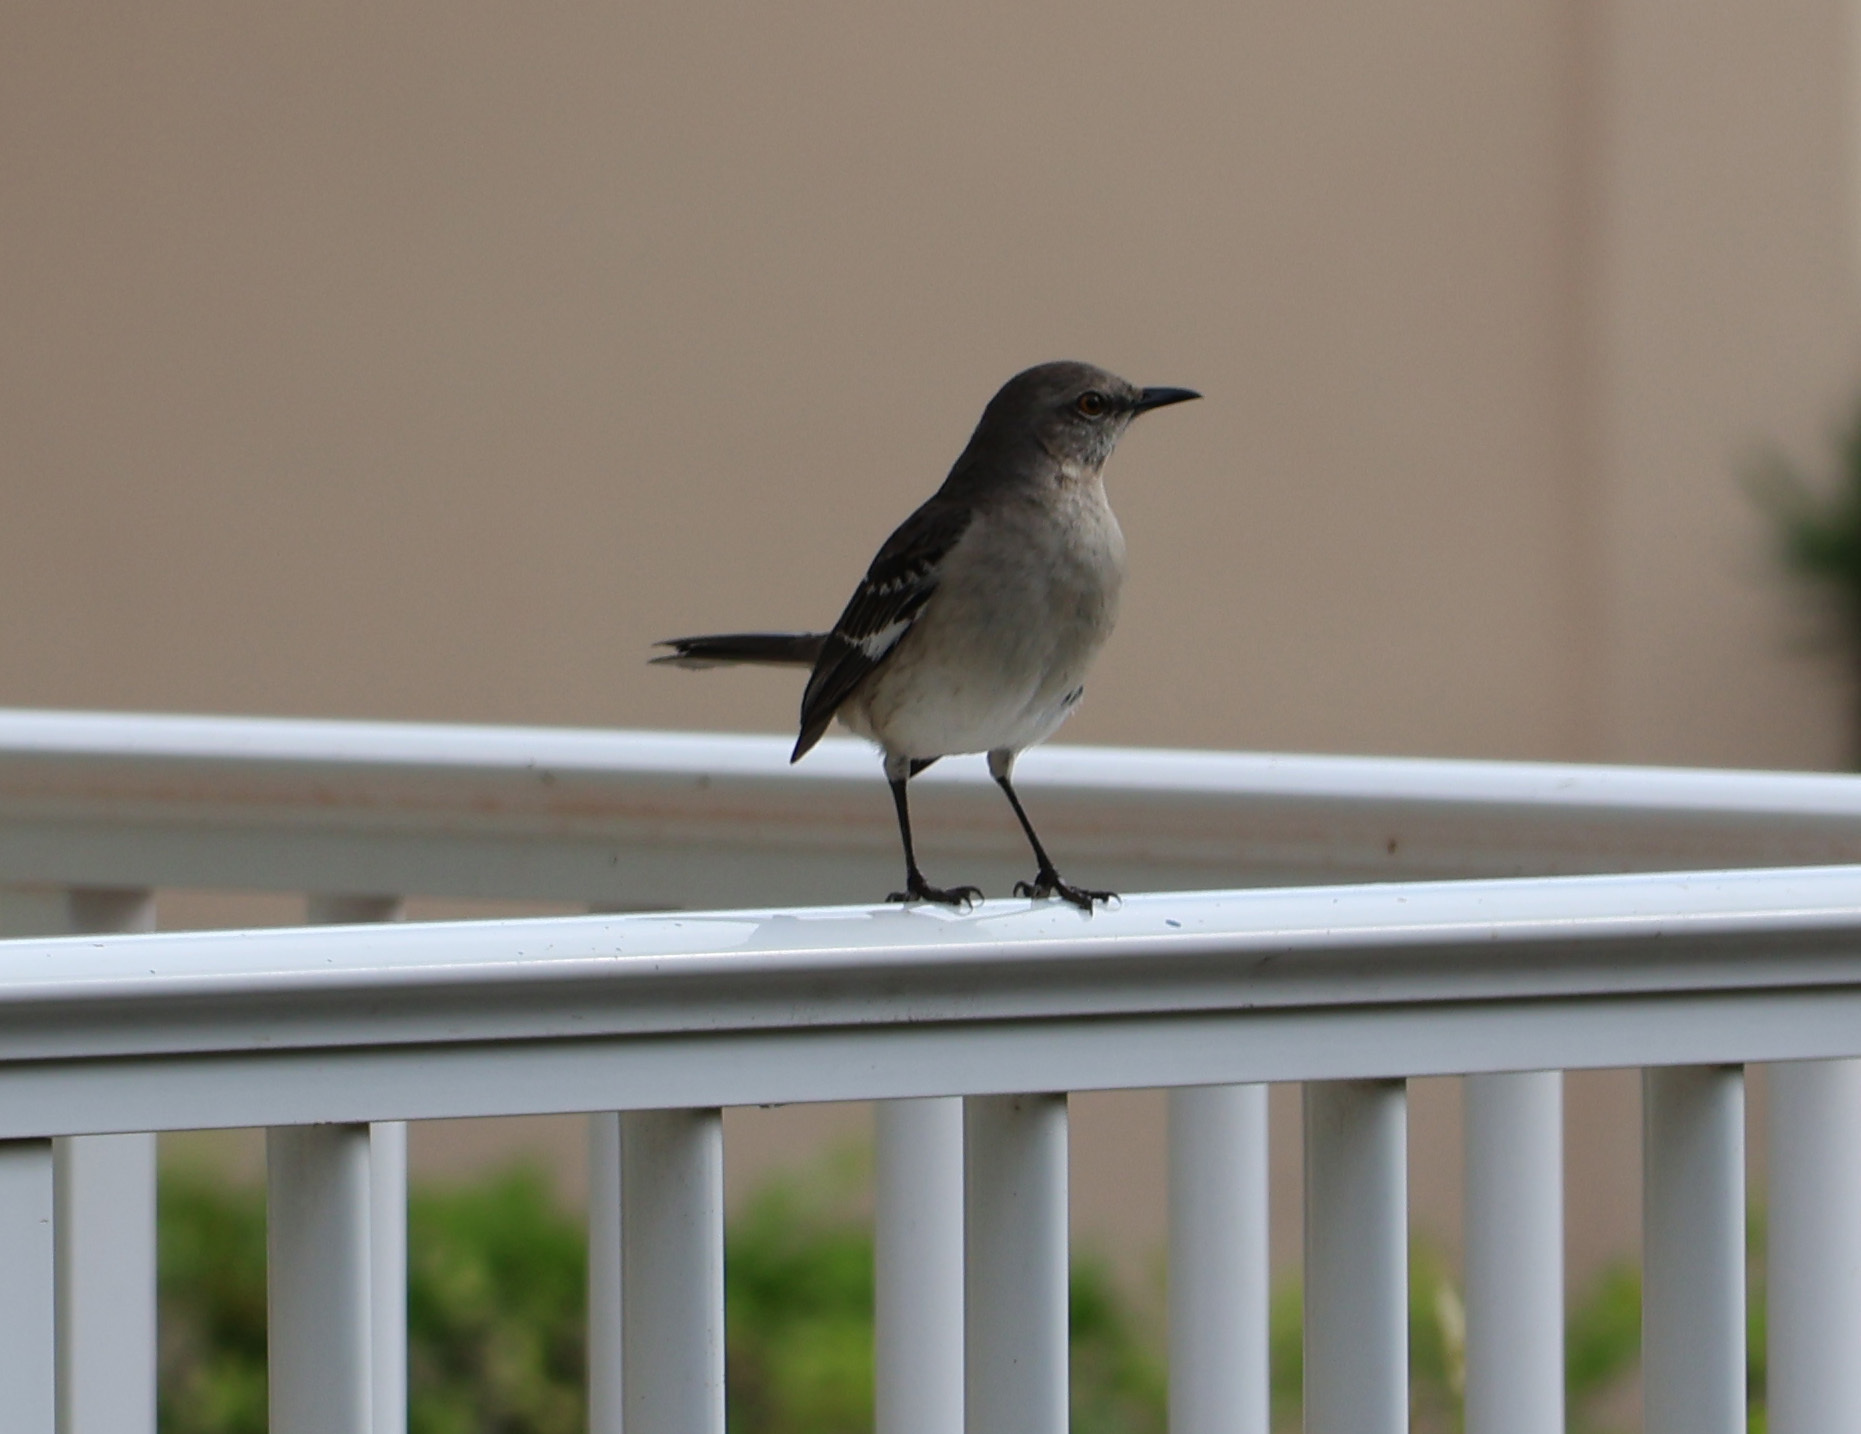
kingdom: Animalia
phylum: Chordata
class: Aves
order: Passeriformes
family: Mimidae
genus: Mimus
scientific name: Mimus polyglottos
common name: Northern mockingbird
